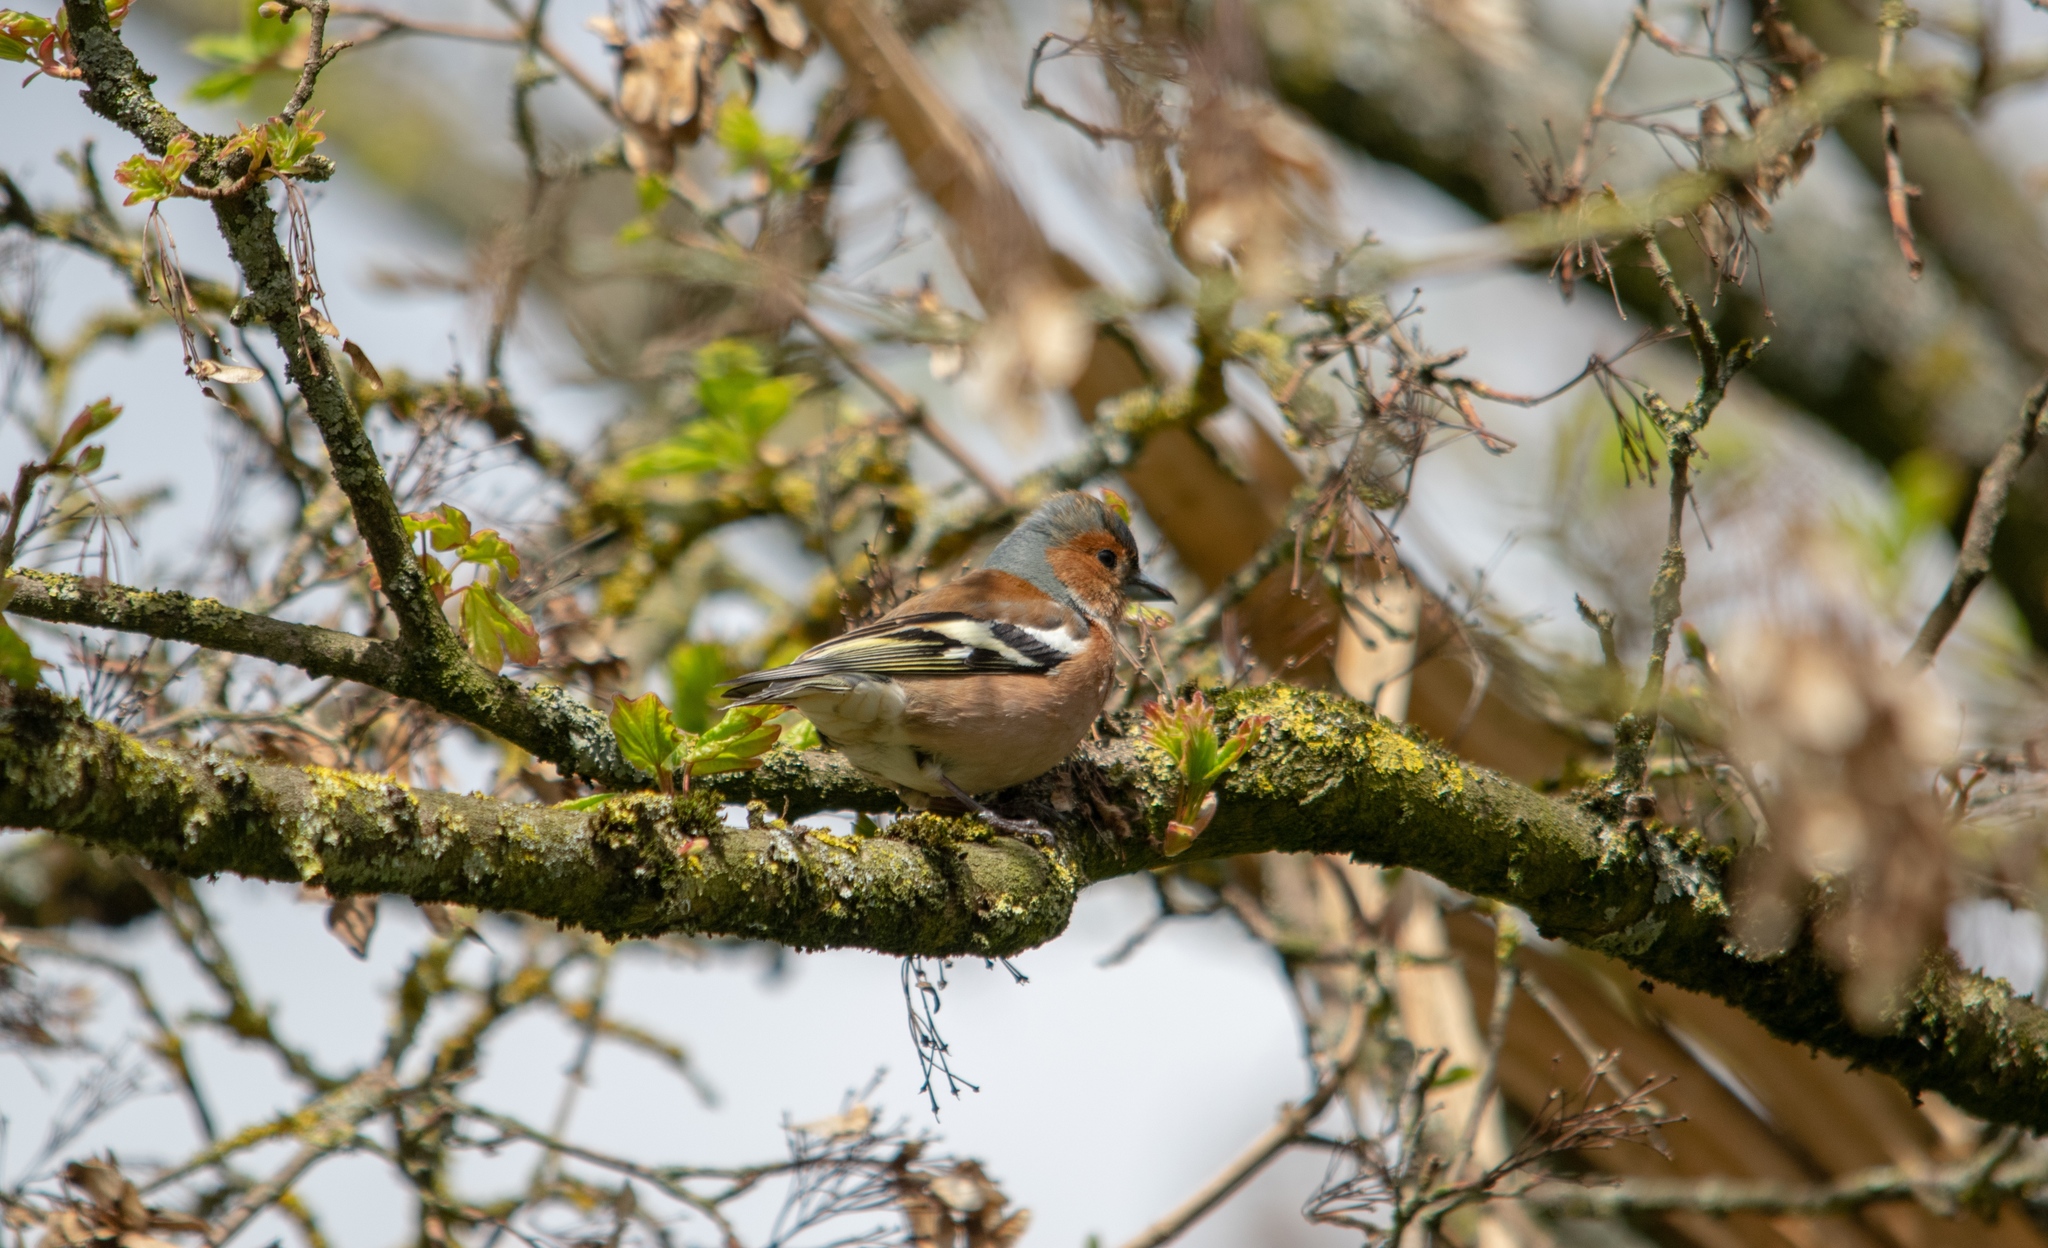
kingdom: Animalia
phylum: Chordata
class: Aves
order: Passeriformes
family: Fringillidae
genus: Fringilla
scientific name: Fringilla coelebs
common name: Common chaffinch
